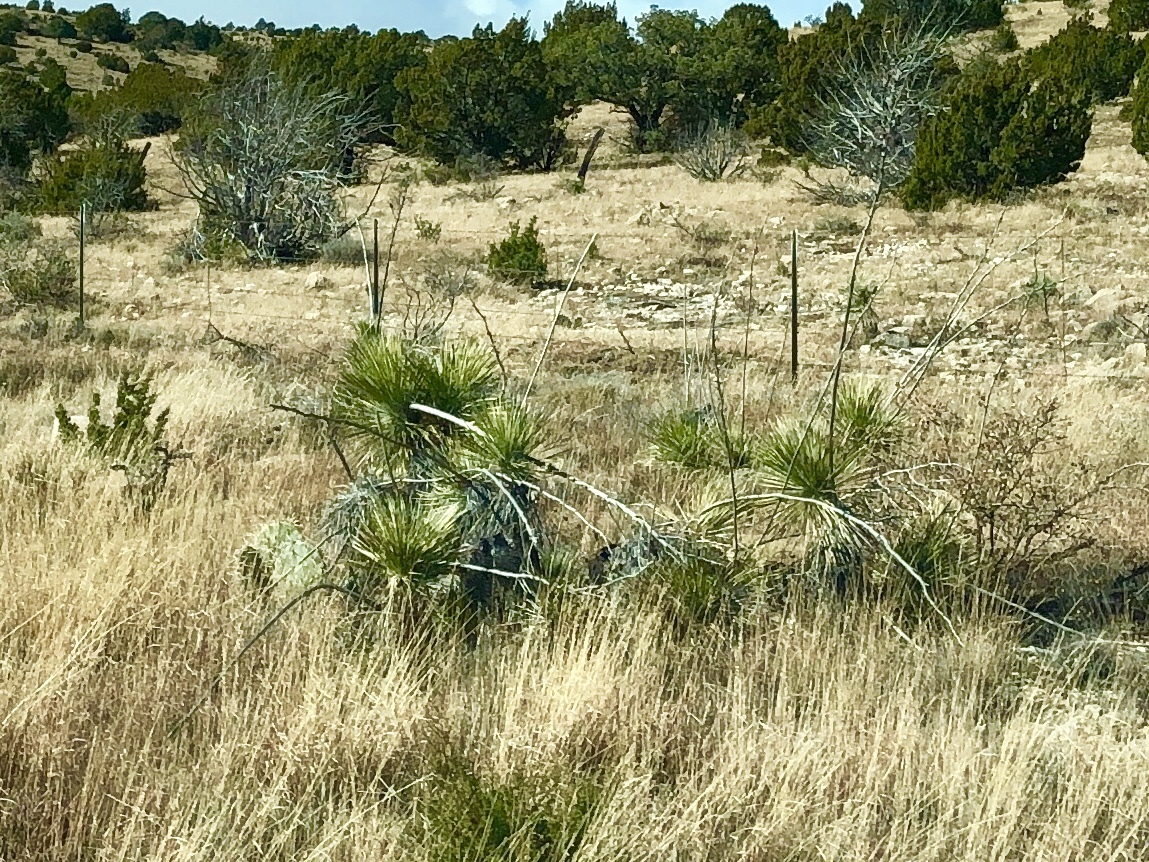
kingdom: Plantae
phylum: Tracheophyta
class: Liliopsida
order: Asparagales
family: Asparagaceae
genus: Yucca
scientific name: Yucca elata
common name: Palmella
